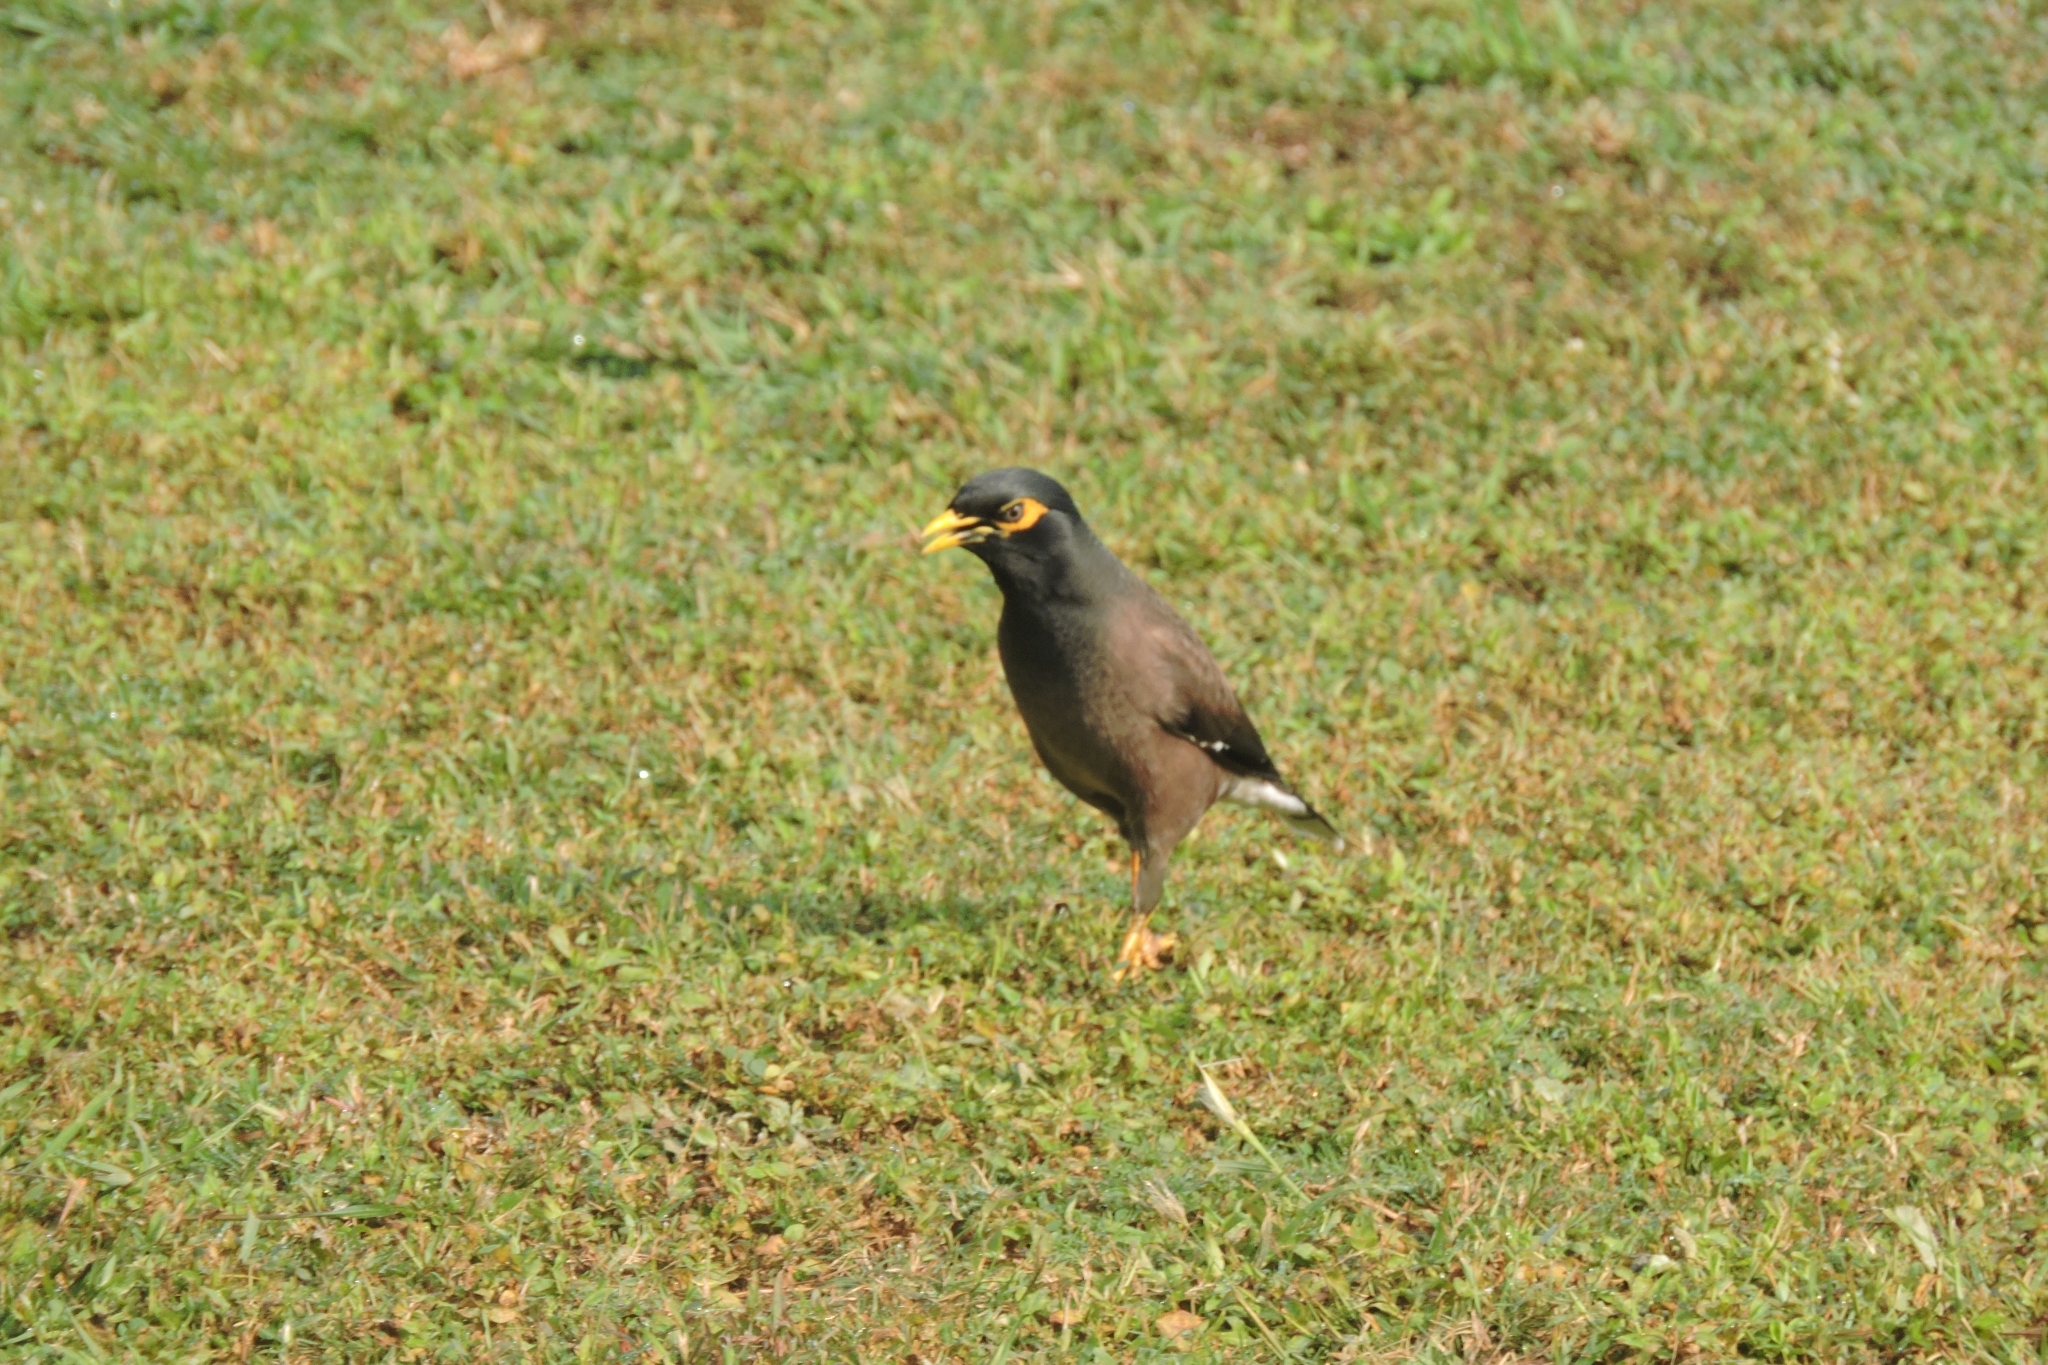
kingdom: Animalia
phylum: Chordata
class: Aves
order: Passeriformes
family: Sturnidae
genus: Acridotheres
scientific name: Acridotheres tristis
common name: Common myna
